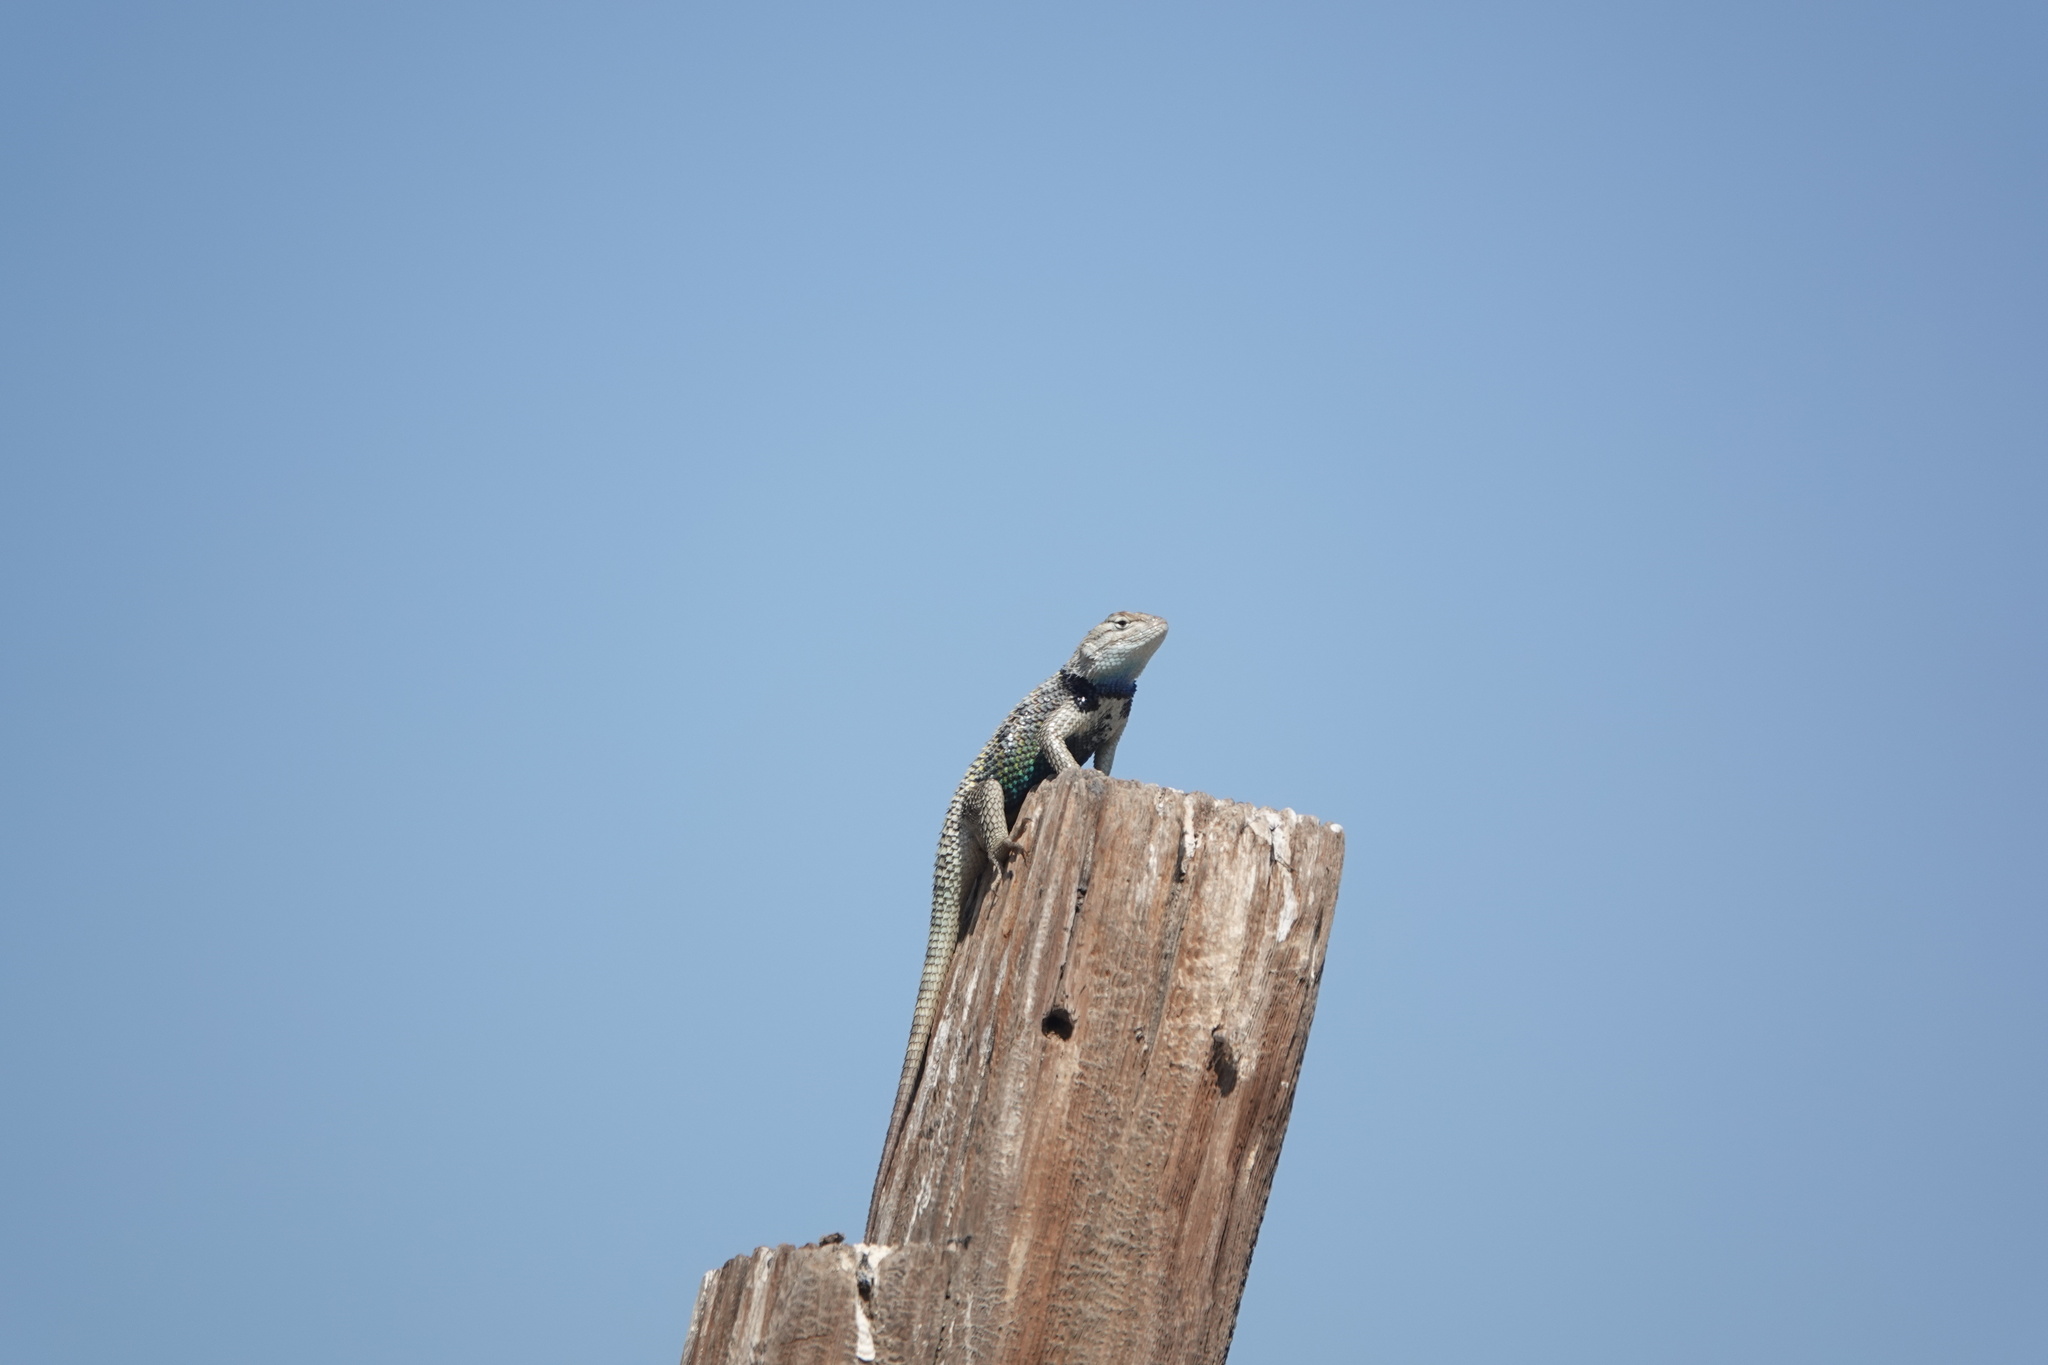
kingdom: Animalia
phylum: Chordata
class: Squamata
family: Phrynosomatidae
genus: Sceloporus
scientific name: Sceloporus uniformis
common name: Yellow-backed spiny lizard
